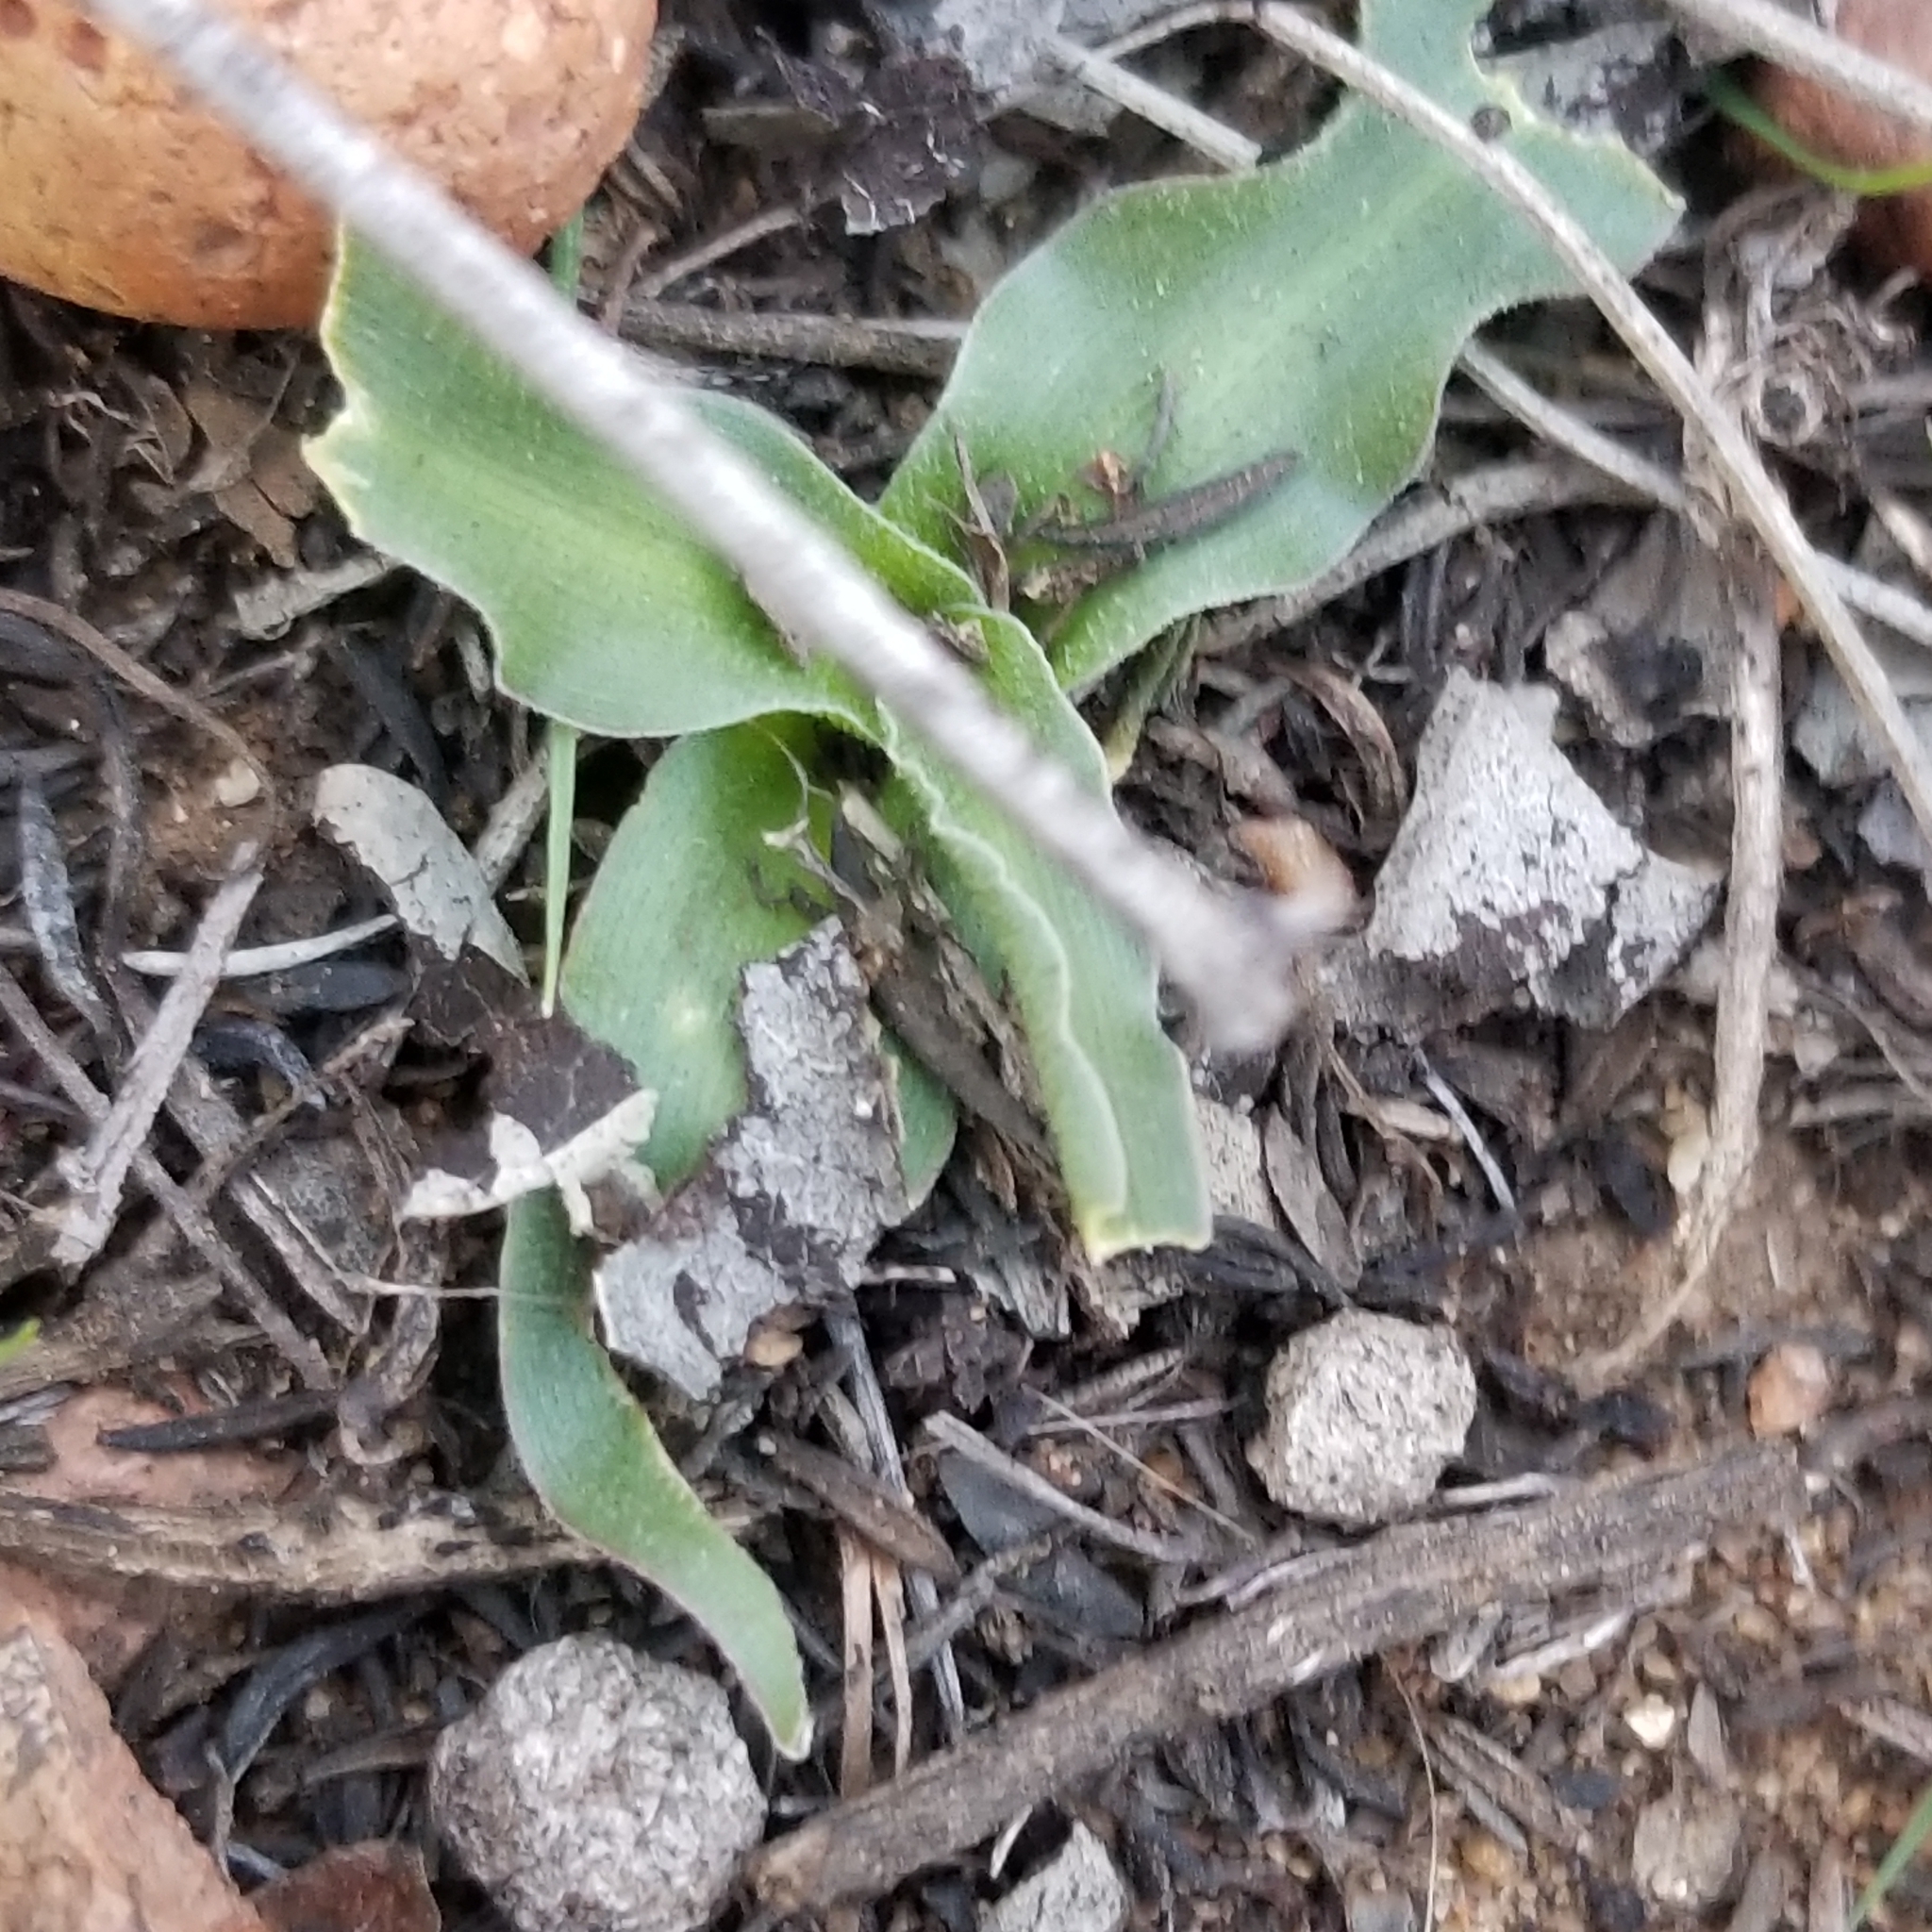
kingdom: Plantae
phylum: Tracheophyta
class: Liliopsida
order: Asparagales
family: Asparagaceae
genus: Hooveria
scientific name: Hooveria parviflora
